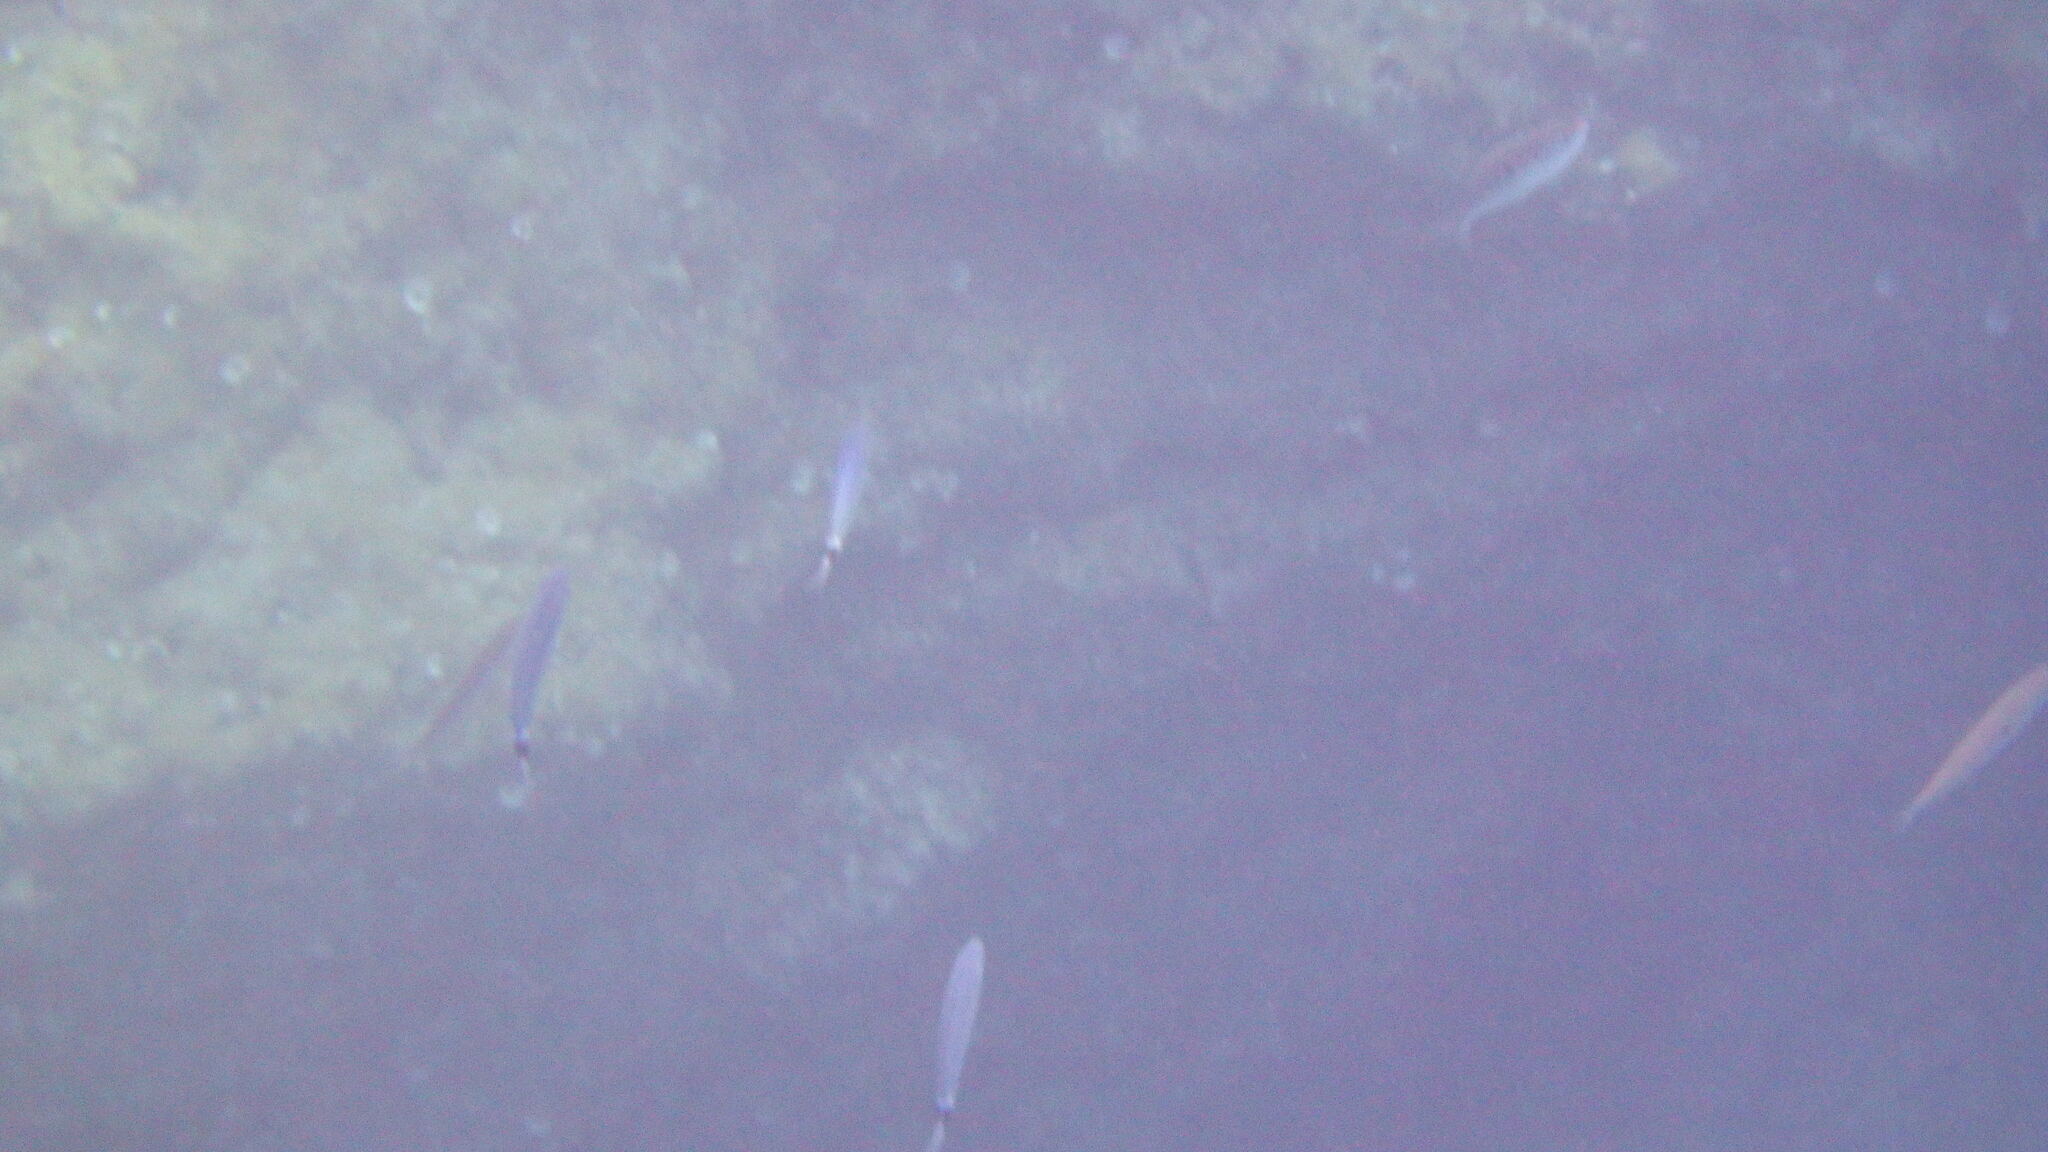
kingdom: Animalia
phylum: Chordata
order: Perciformes
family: Sparidae
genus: Oblada
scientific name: Oblada melanura
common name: Saddled seabream
